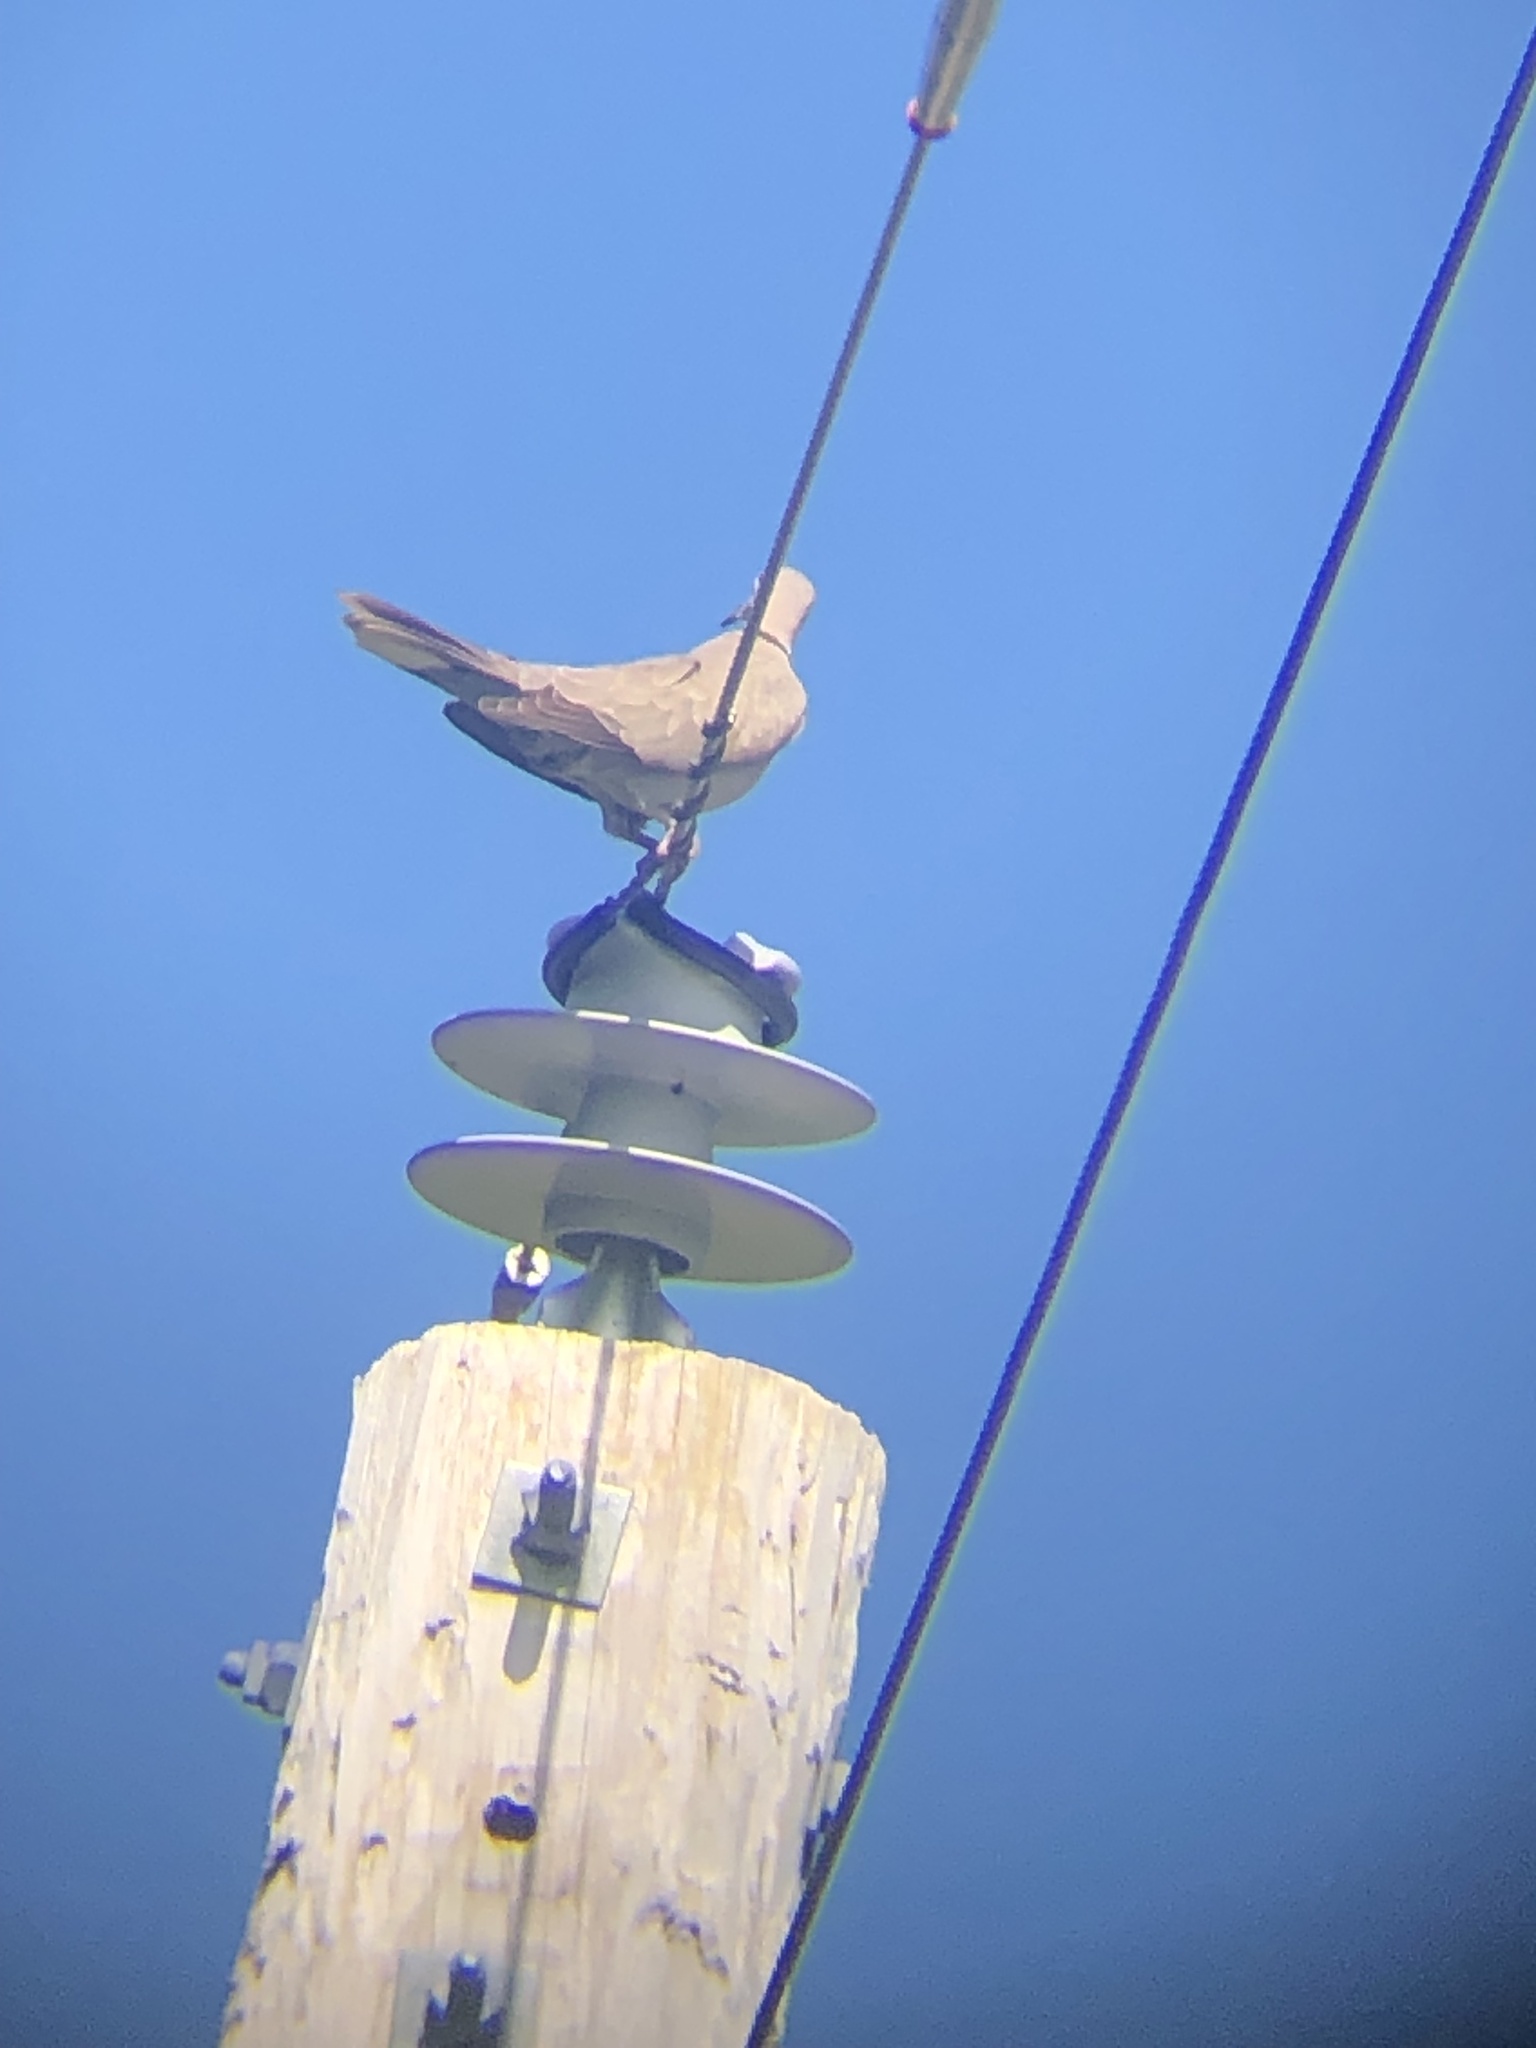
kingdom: Animalia
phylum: Chordata
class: Aves
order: Columbiformes
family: Columbidae
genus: Streptopelia
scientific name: Streptopelia decaocto
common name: Eurasian collared dove
